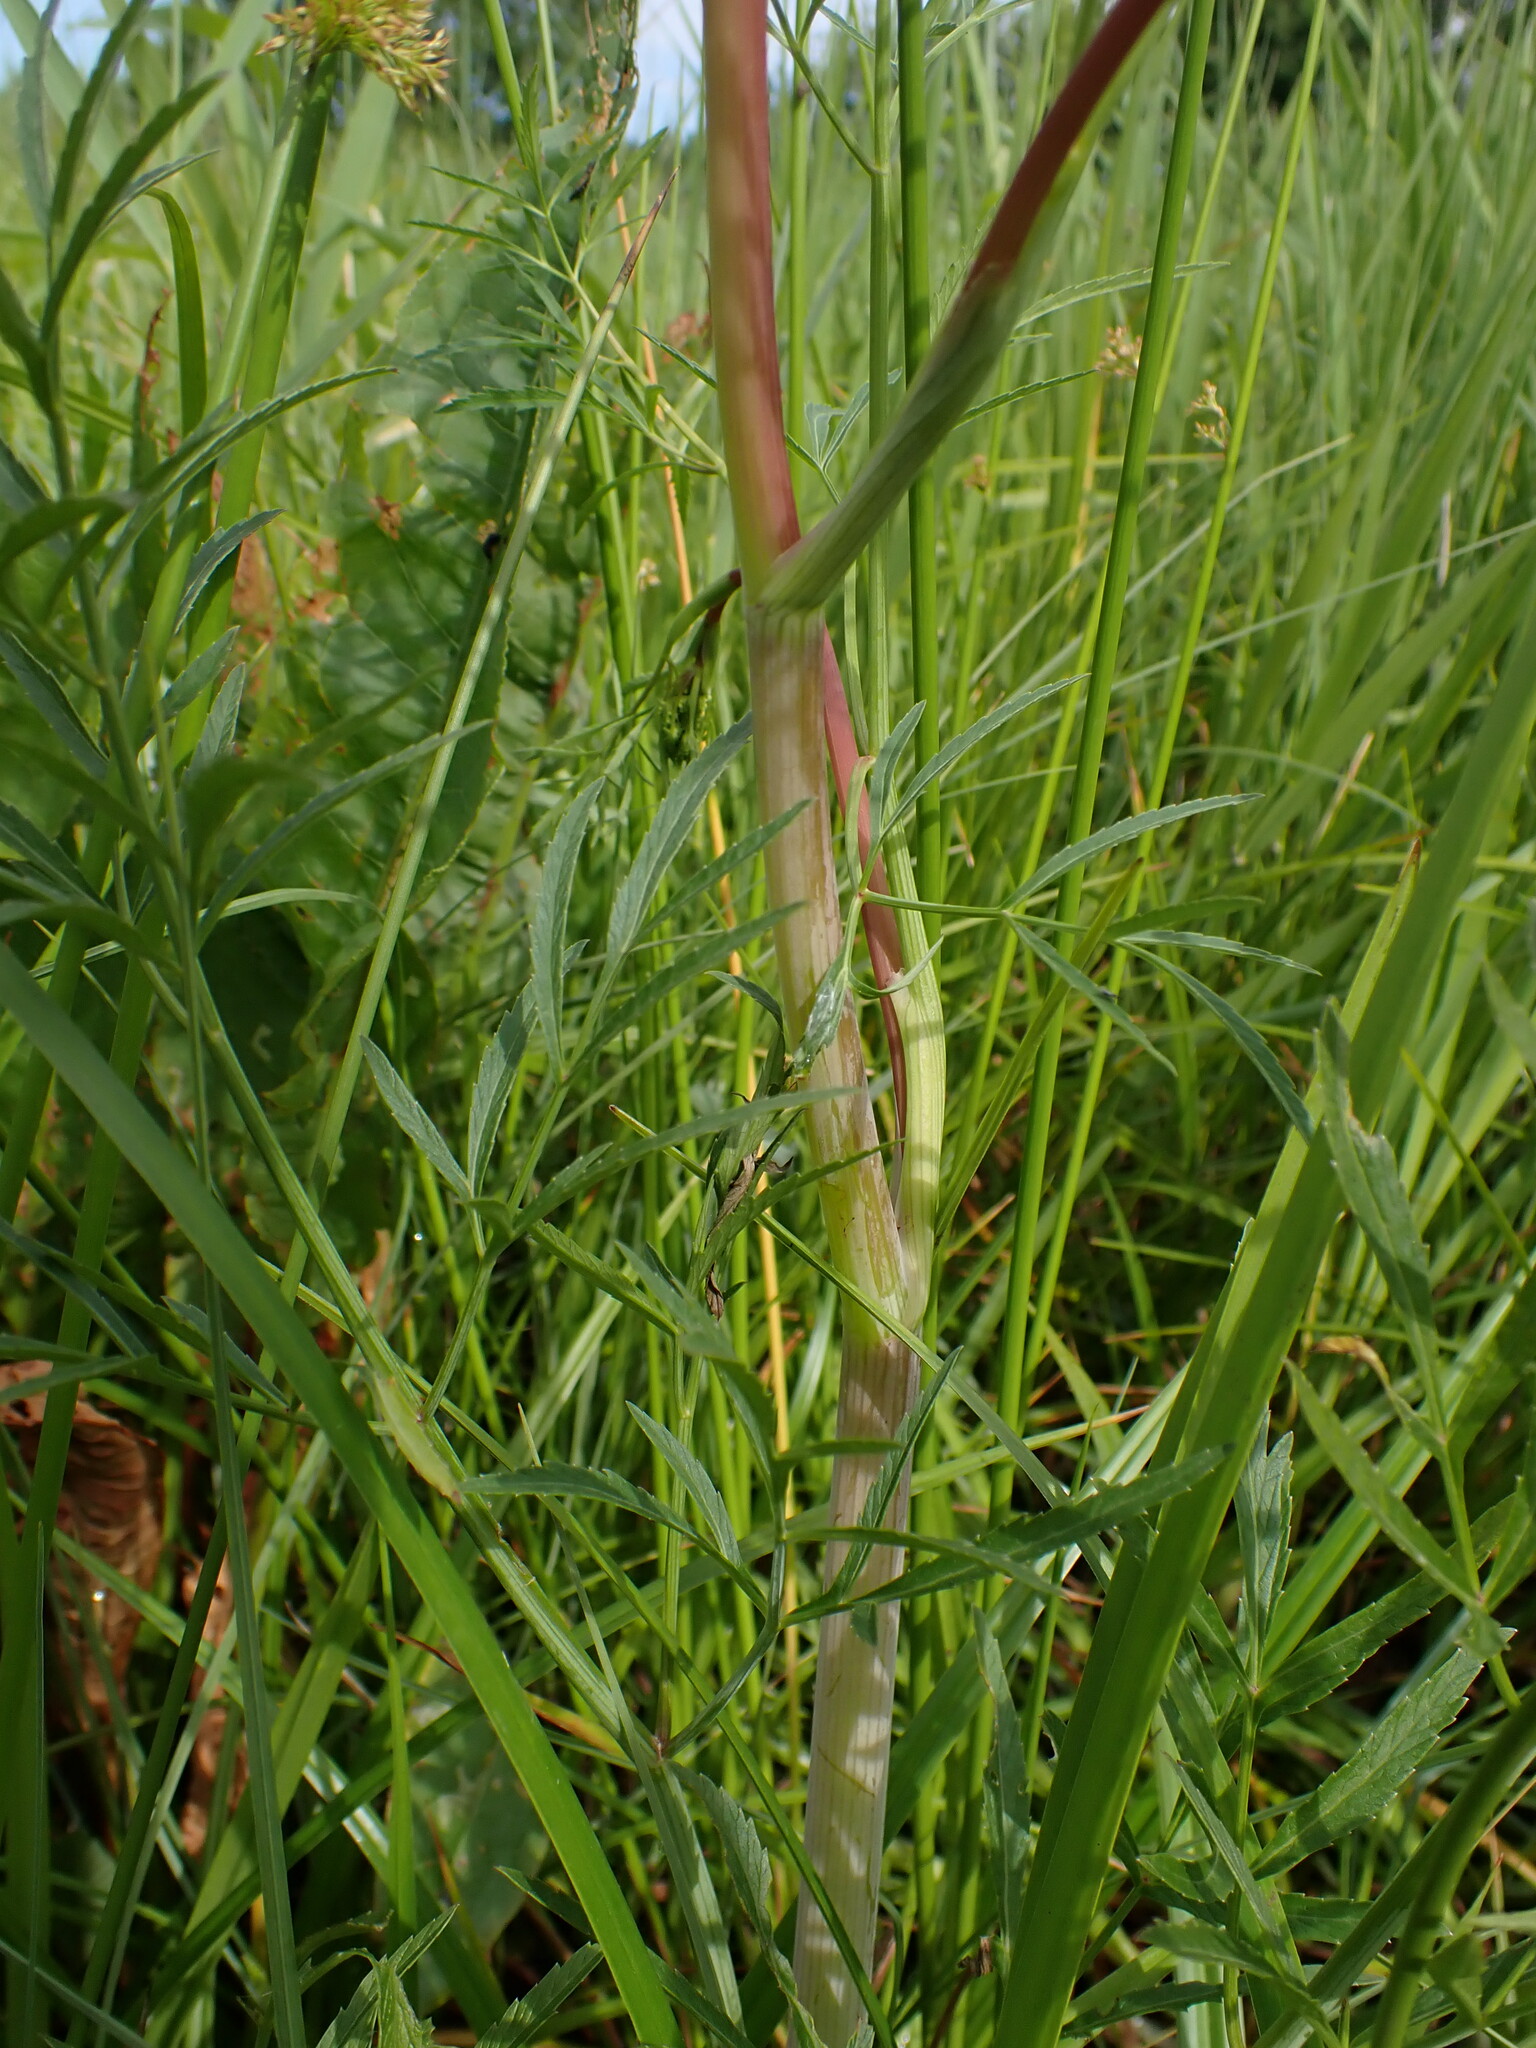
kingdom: Plantae
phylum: Tracheophyta
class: Magnoliopsida
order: Apiales
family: Apiaceae
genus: Cicuta
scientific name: Cicuta virosa
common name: Cowbane
